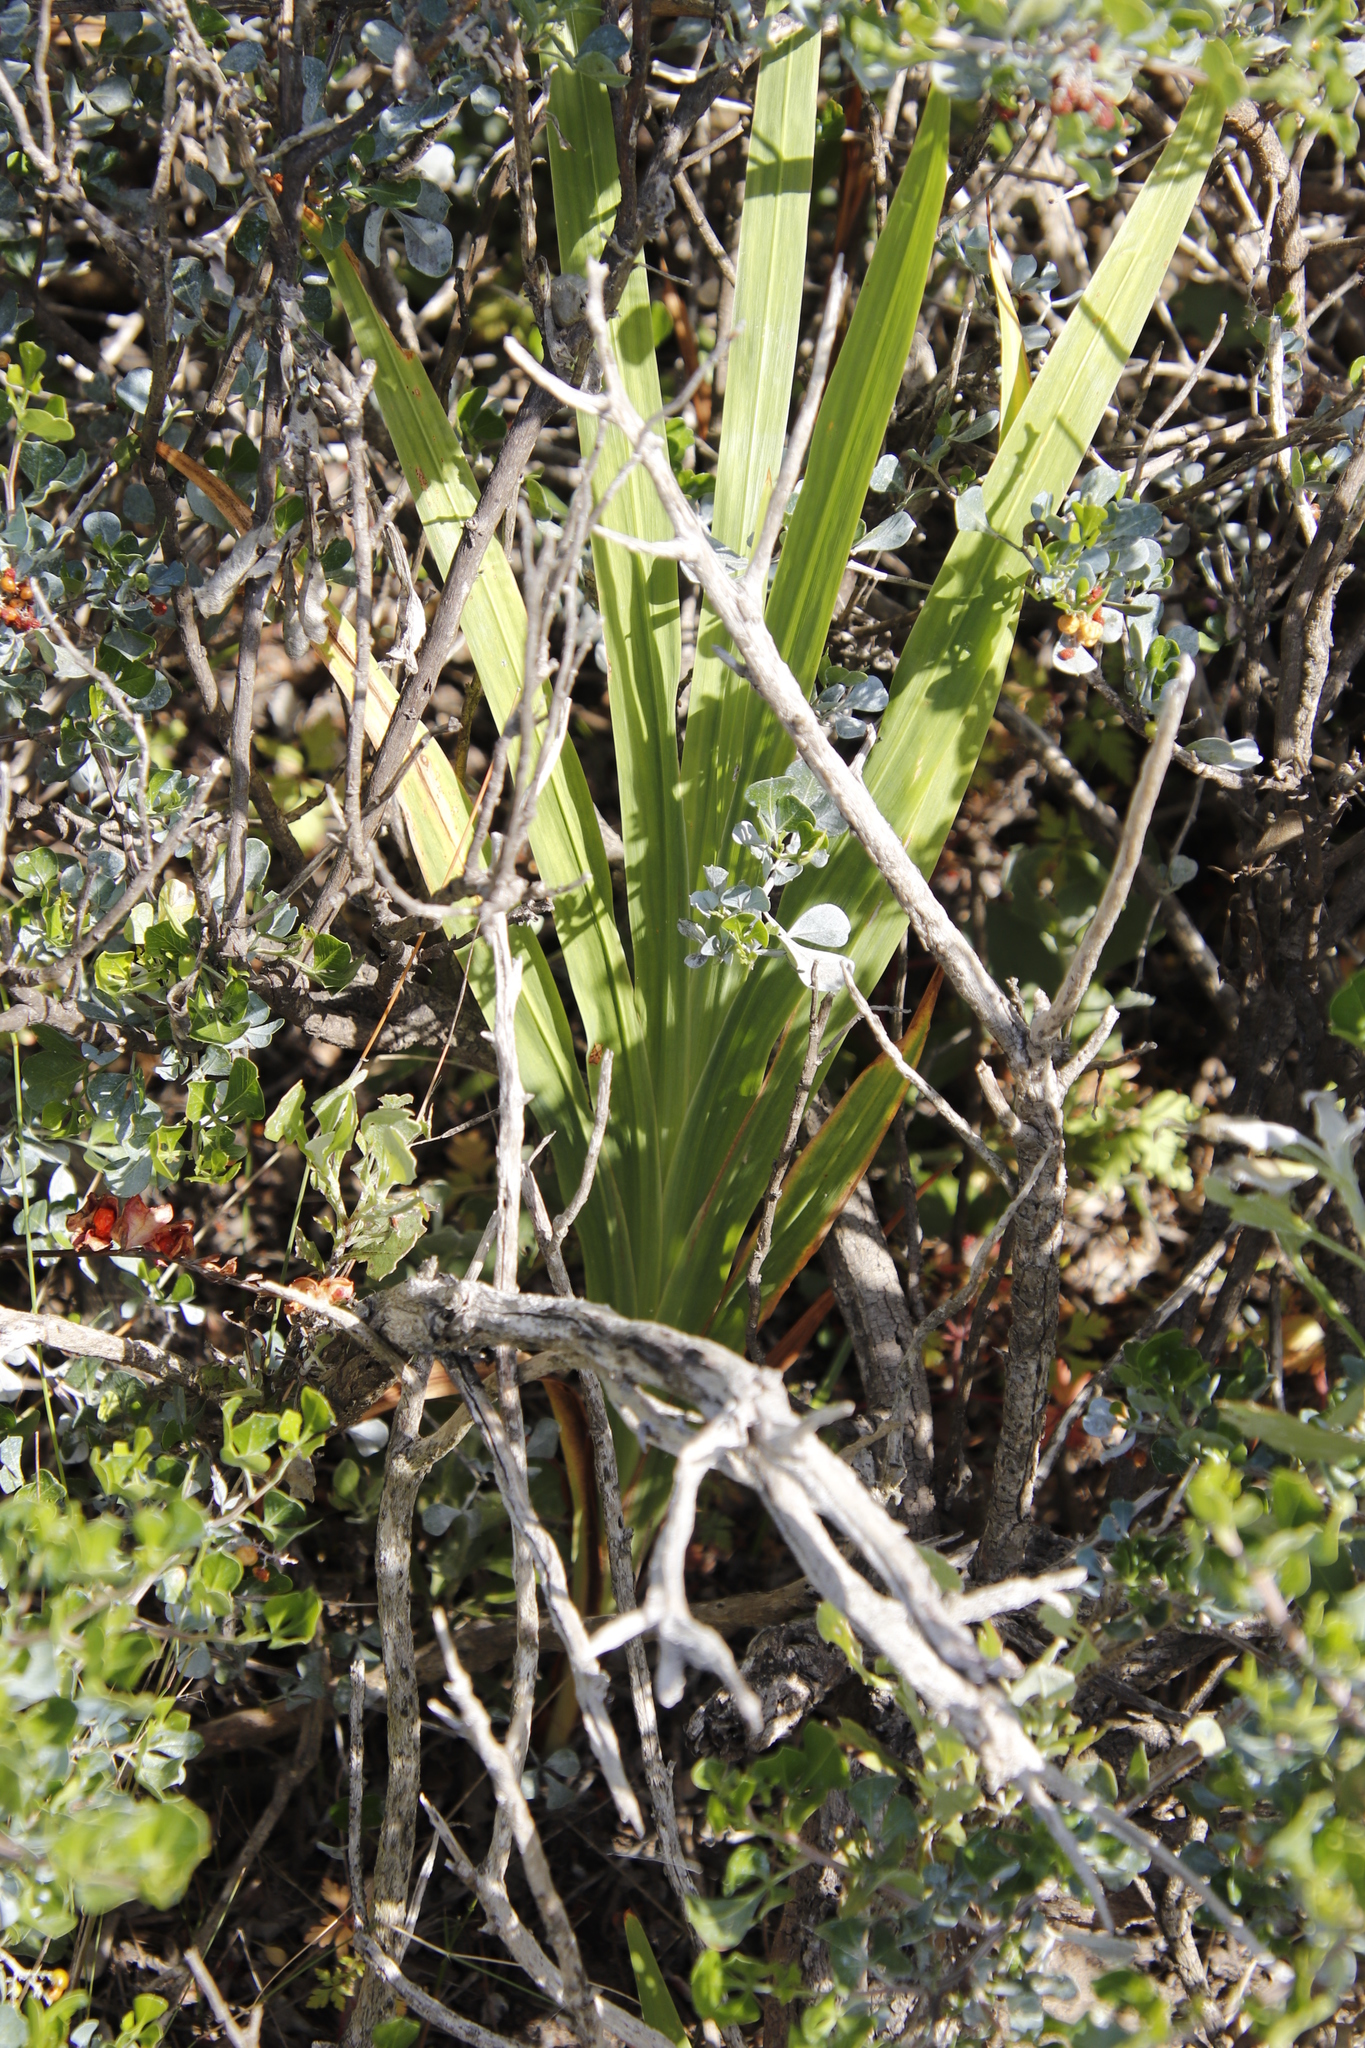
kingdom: Plantae
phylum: Tracheophyta
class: Liliopsida
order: Asparagales
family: Iridaceae
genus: Chasmanthe
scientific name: Chasmanthe aethiopica
